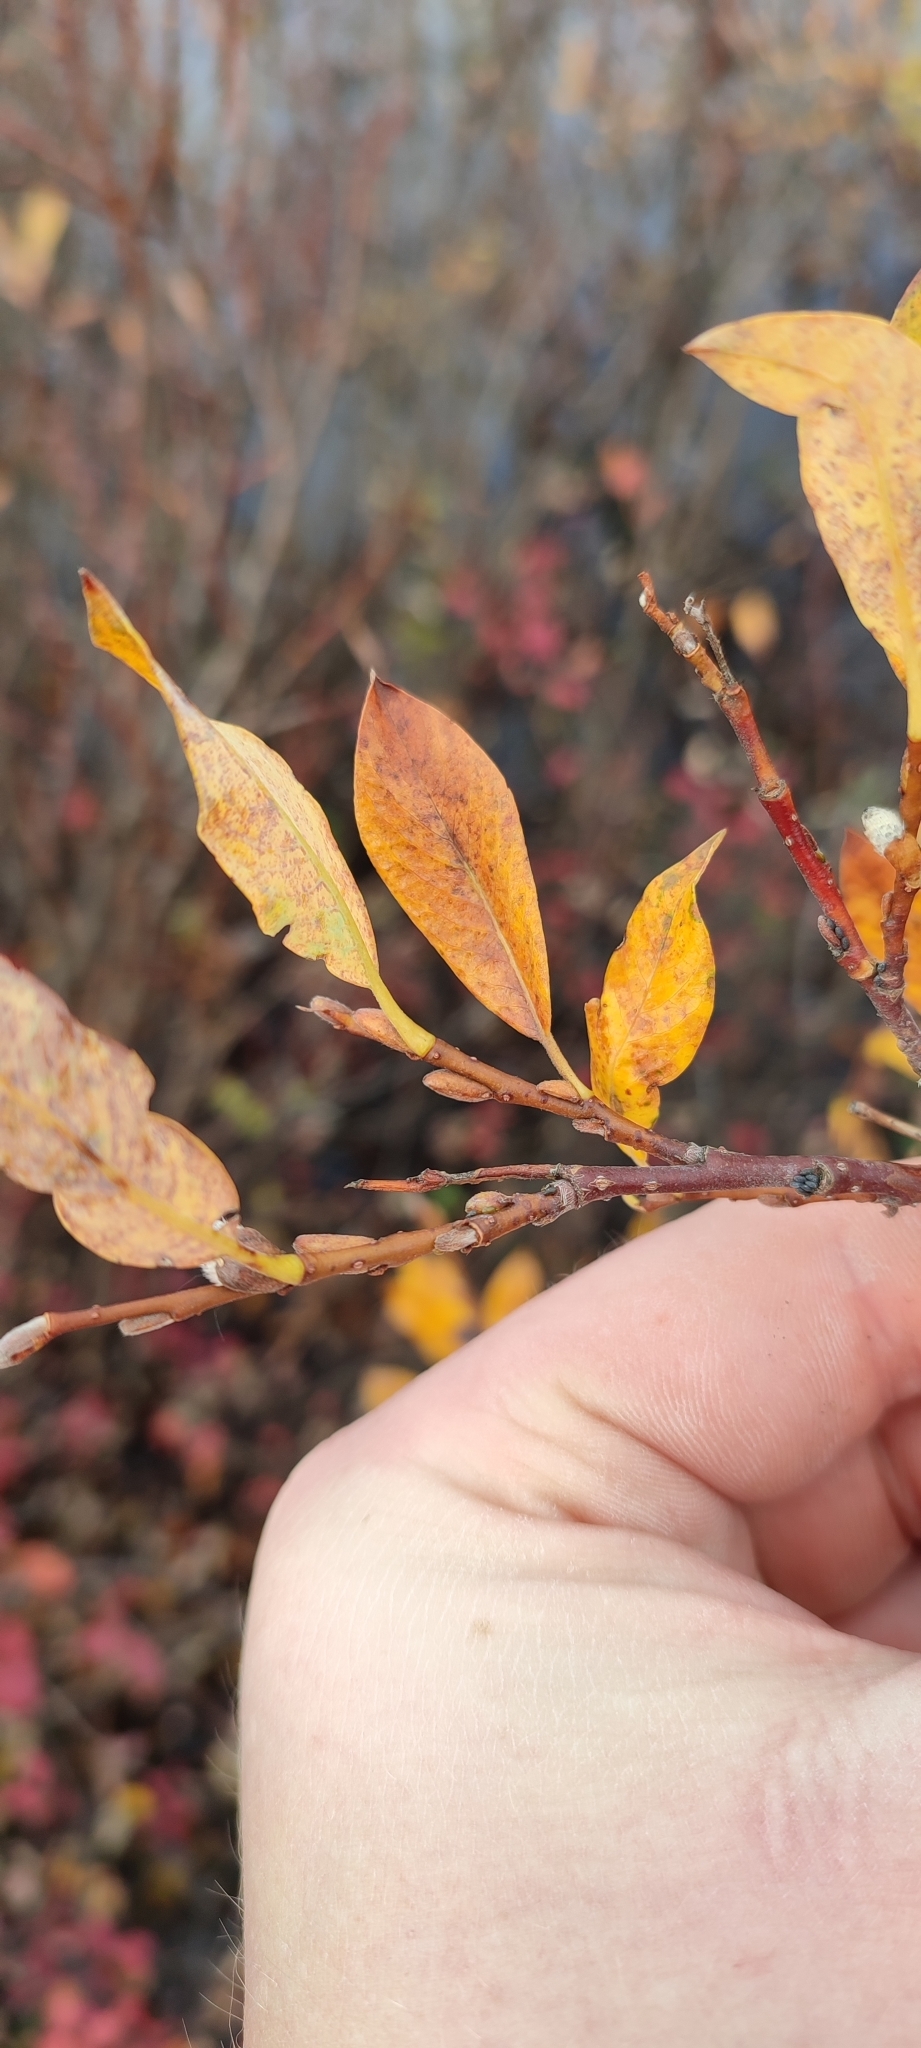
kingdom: Plantae
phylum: Tracheophyta
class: Magnoliopsida
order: Malpighiales
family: Salicaceae
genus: Salix
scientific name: Salix phylicifolia
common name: Tea-leaved willow
